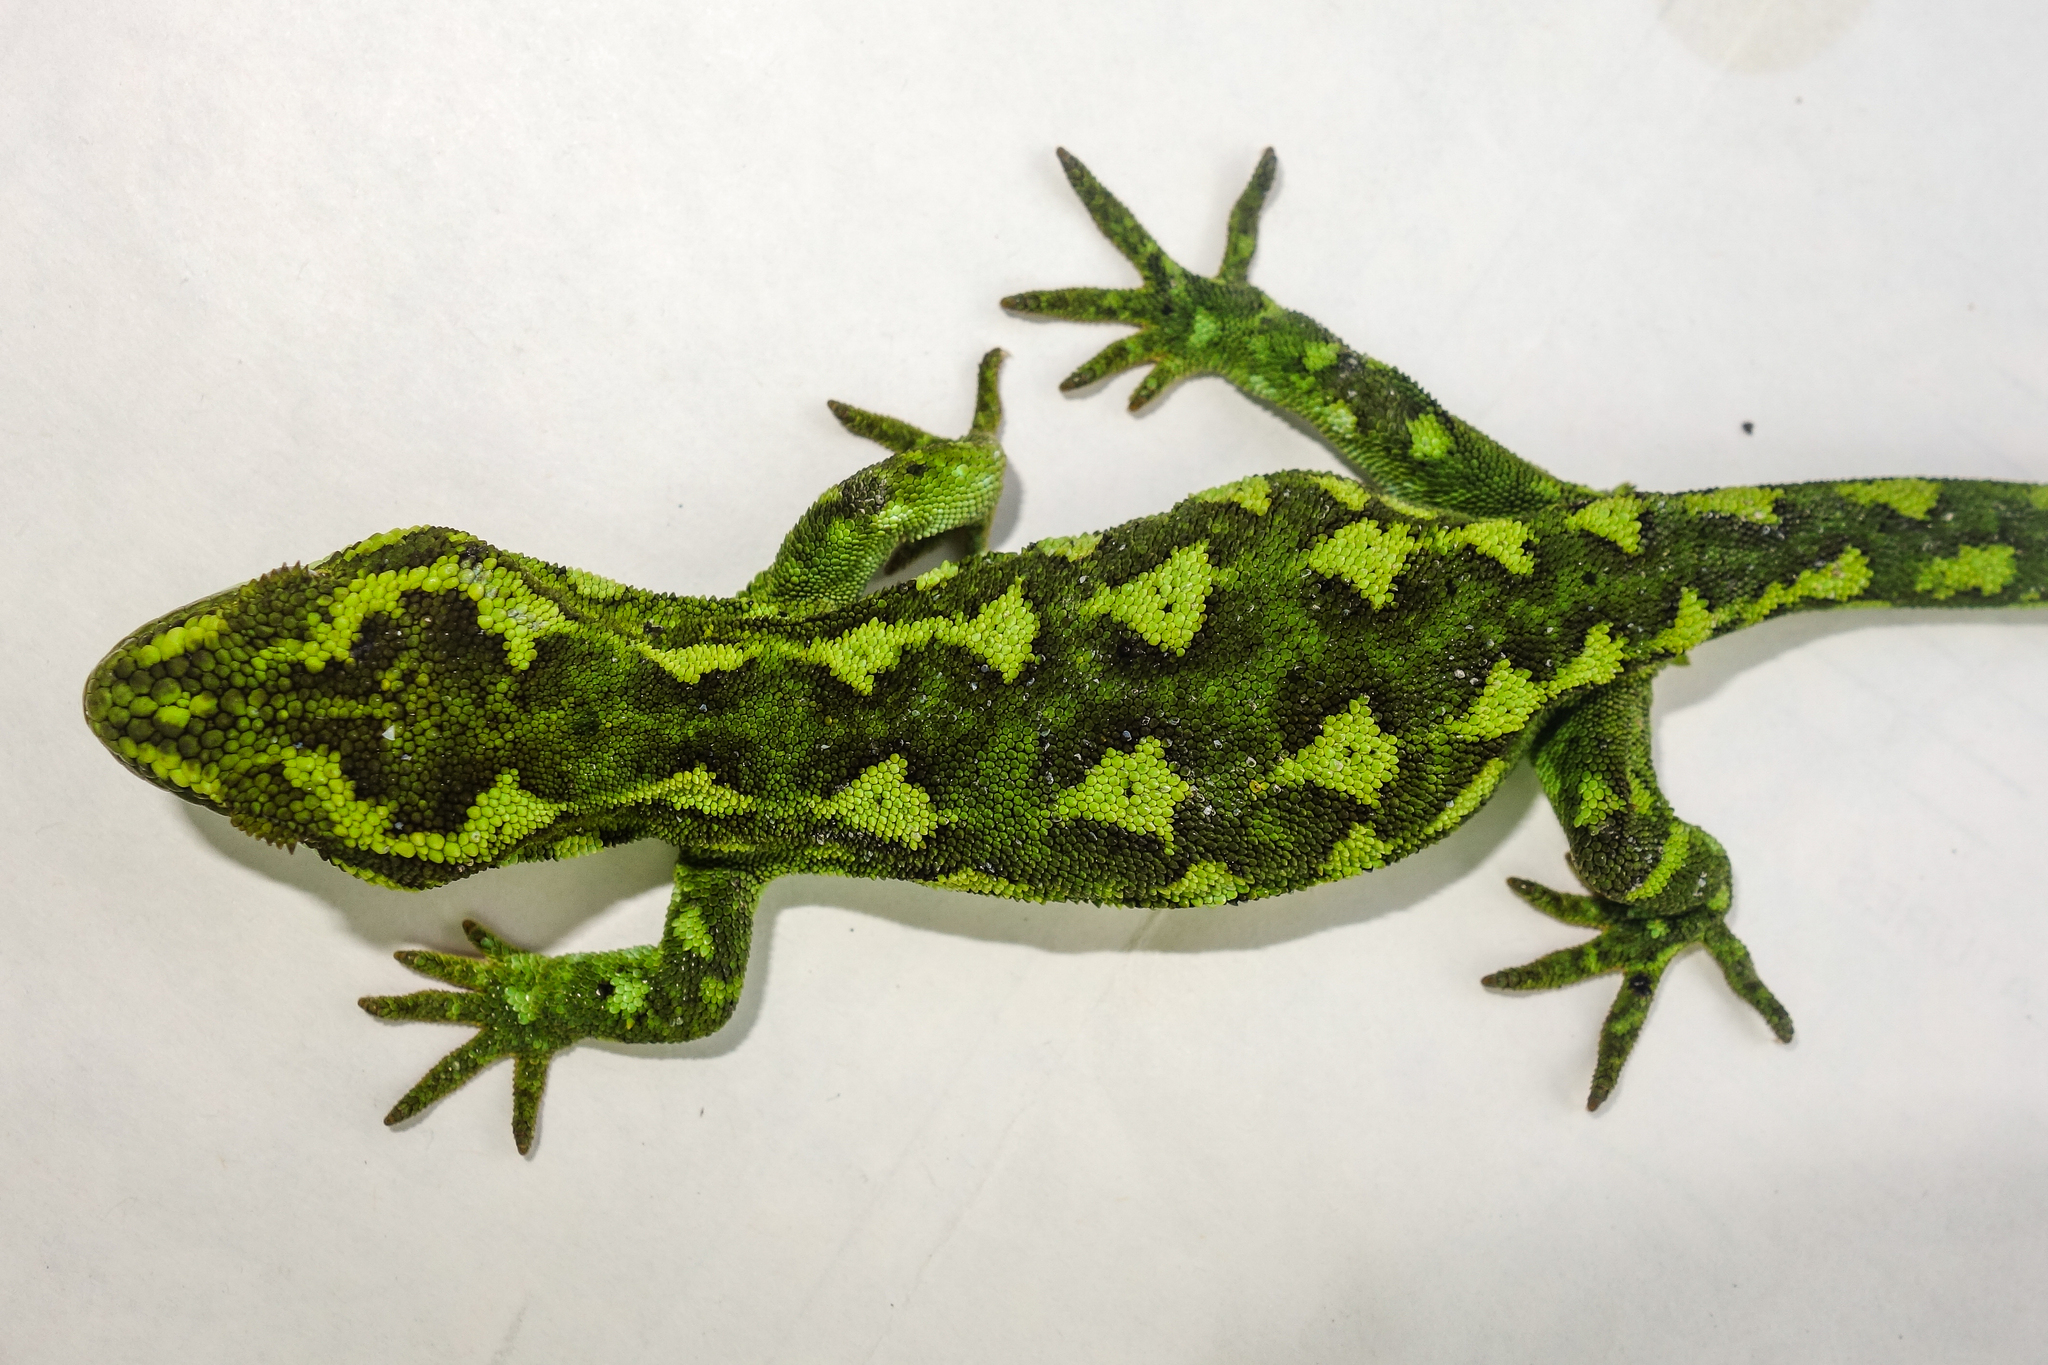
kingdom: Animalia
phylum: Chordata
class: Squamata
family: Diplodactylidae
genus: Naultinus
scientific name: Naultinus gemmeus
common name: Jewelled gecko
